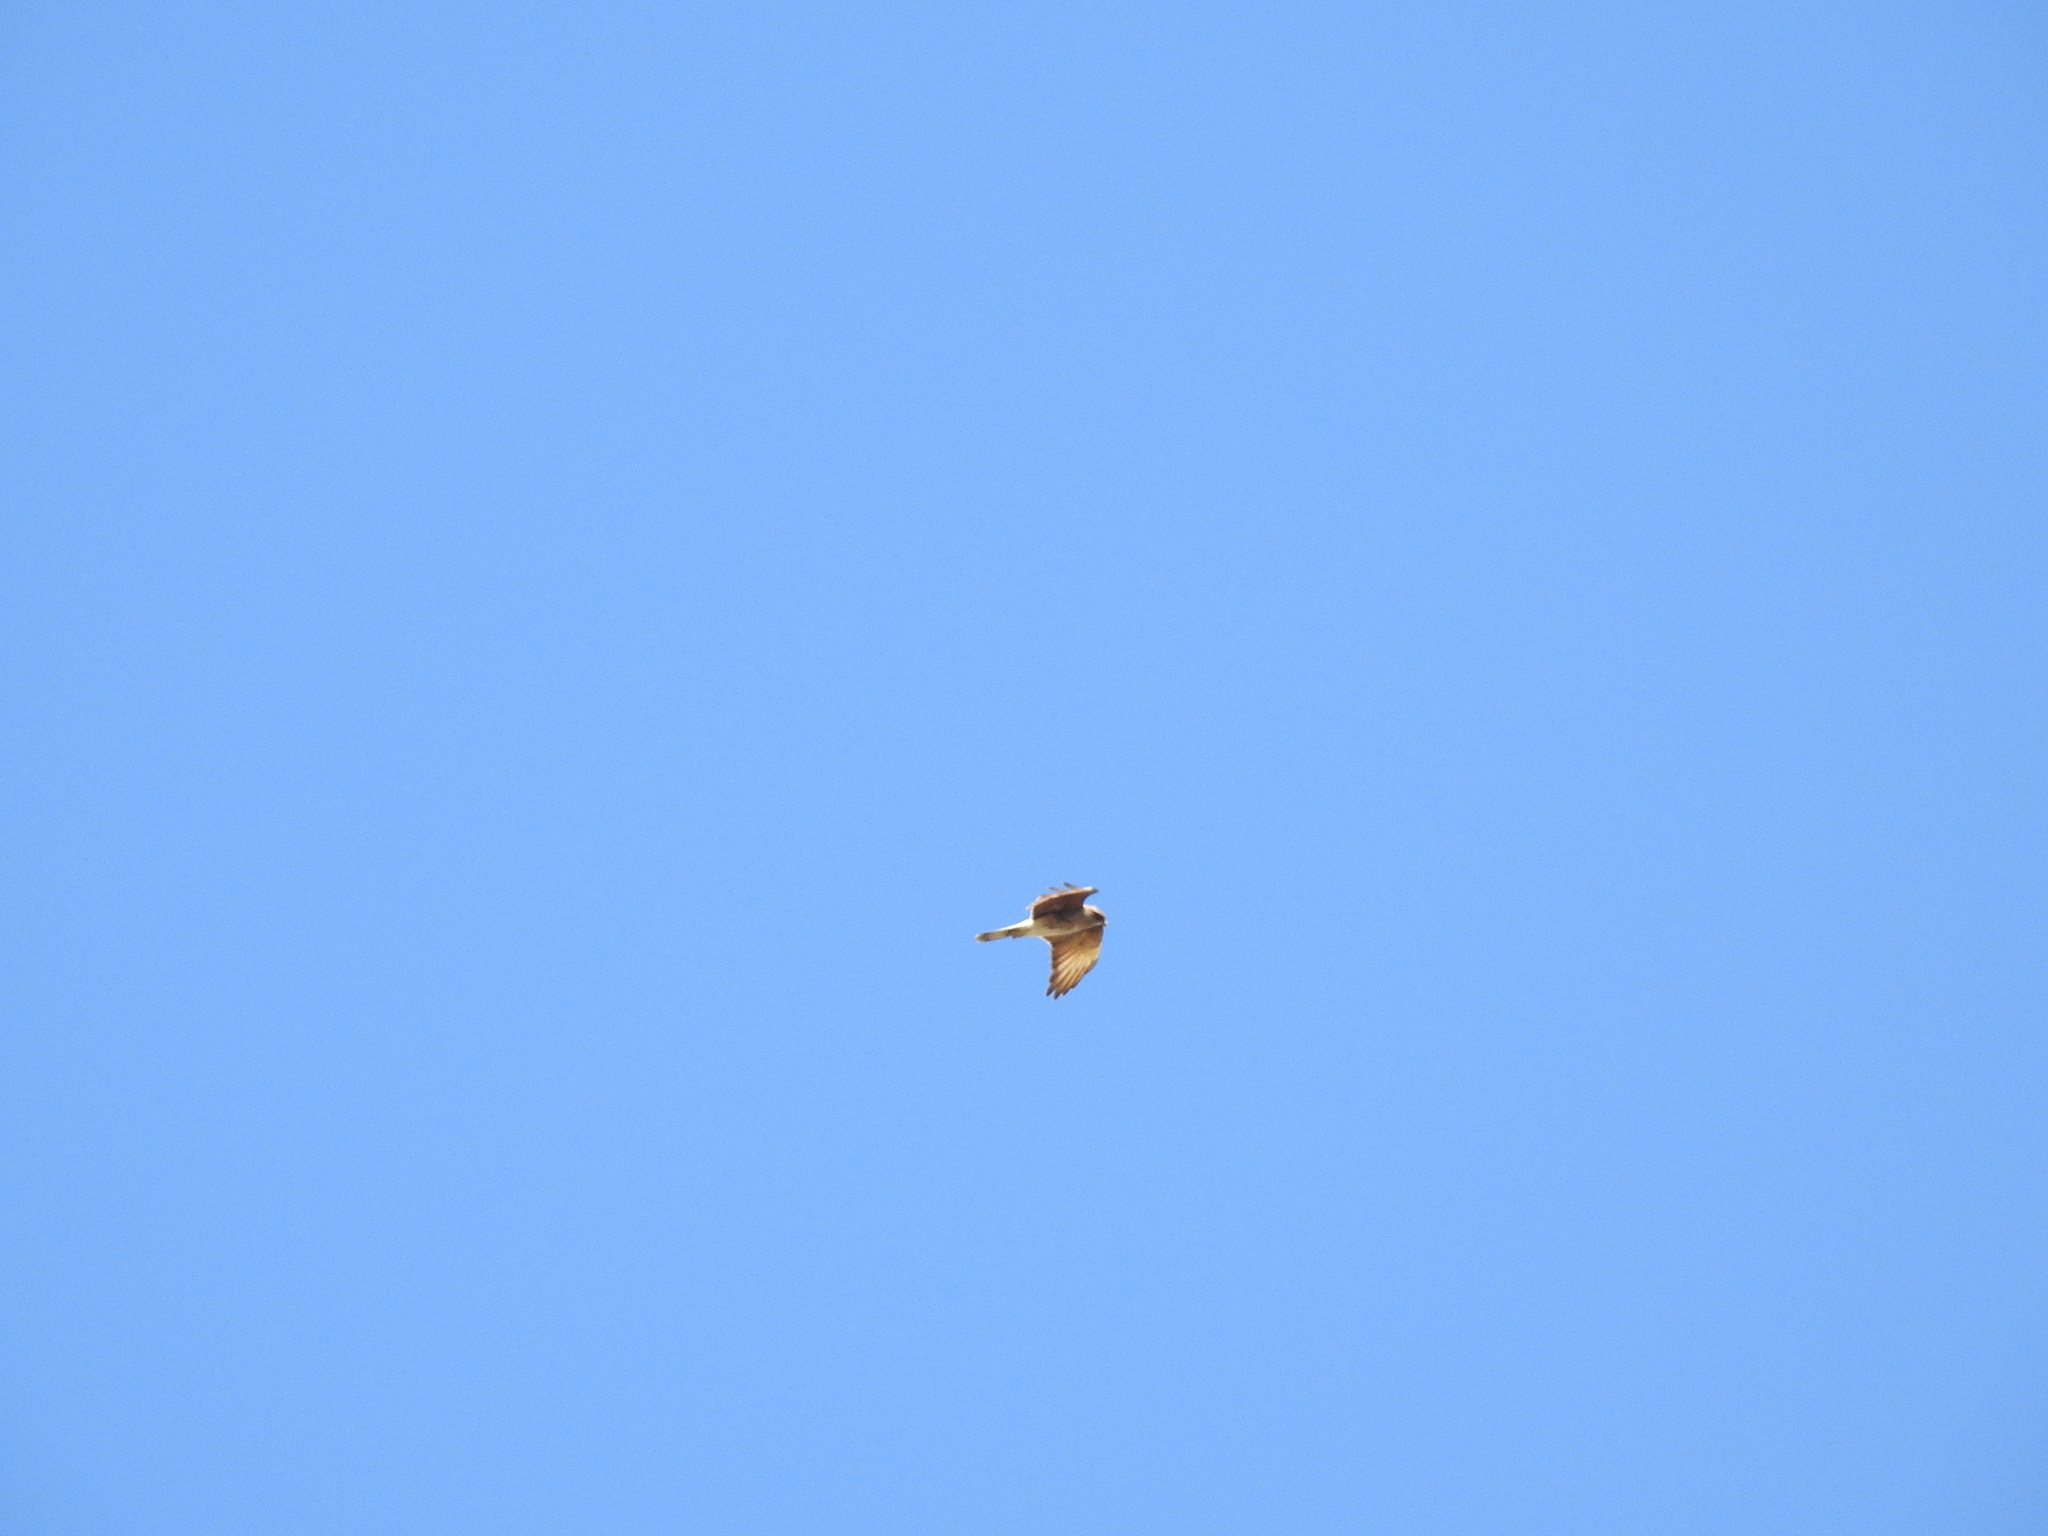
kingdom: Animalia
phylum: Chordata
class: Aves
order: Falconiformes
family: Falconidae
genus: Daptrius
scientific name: Daptrius
